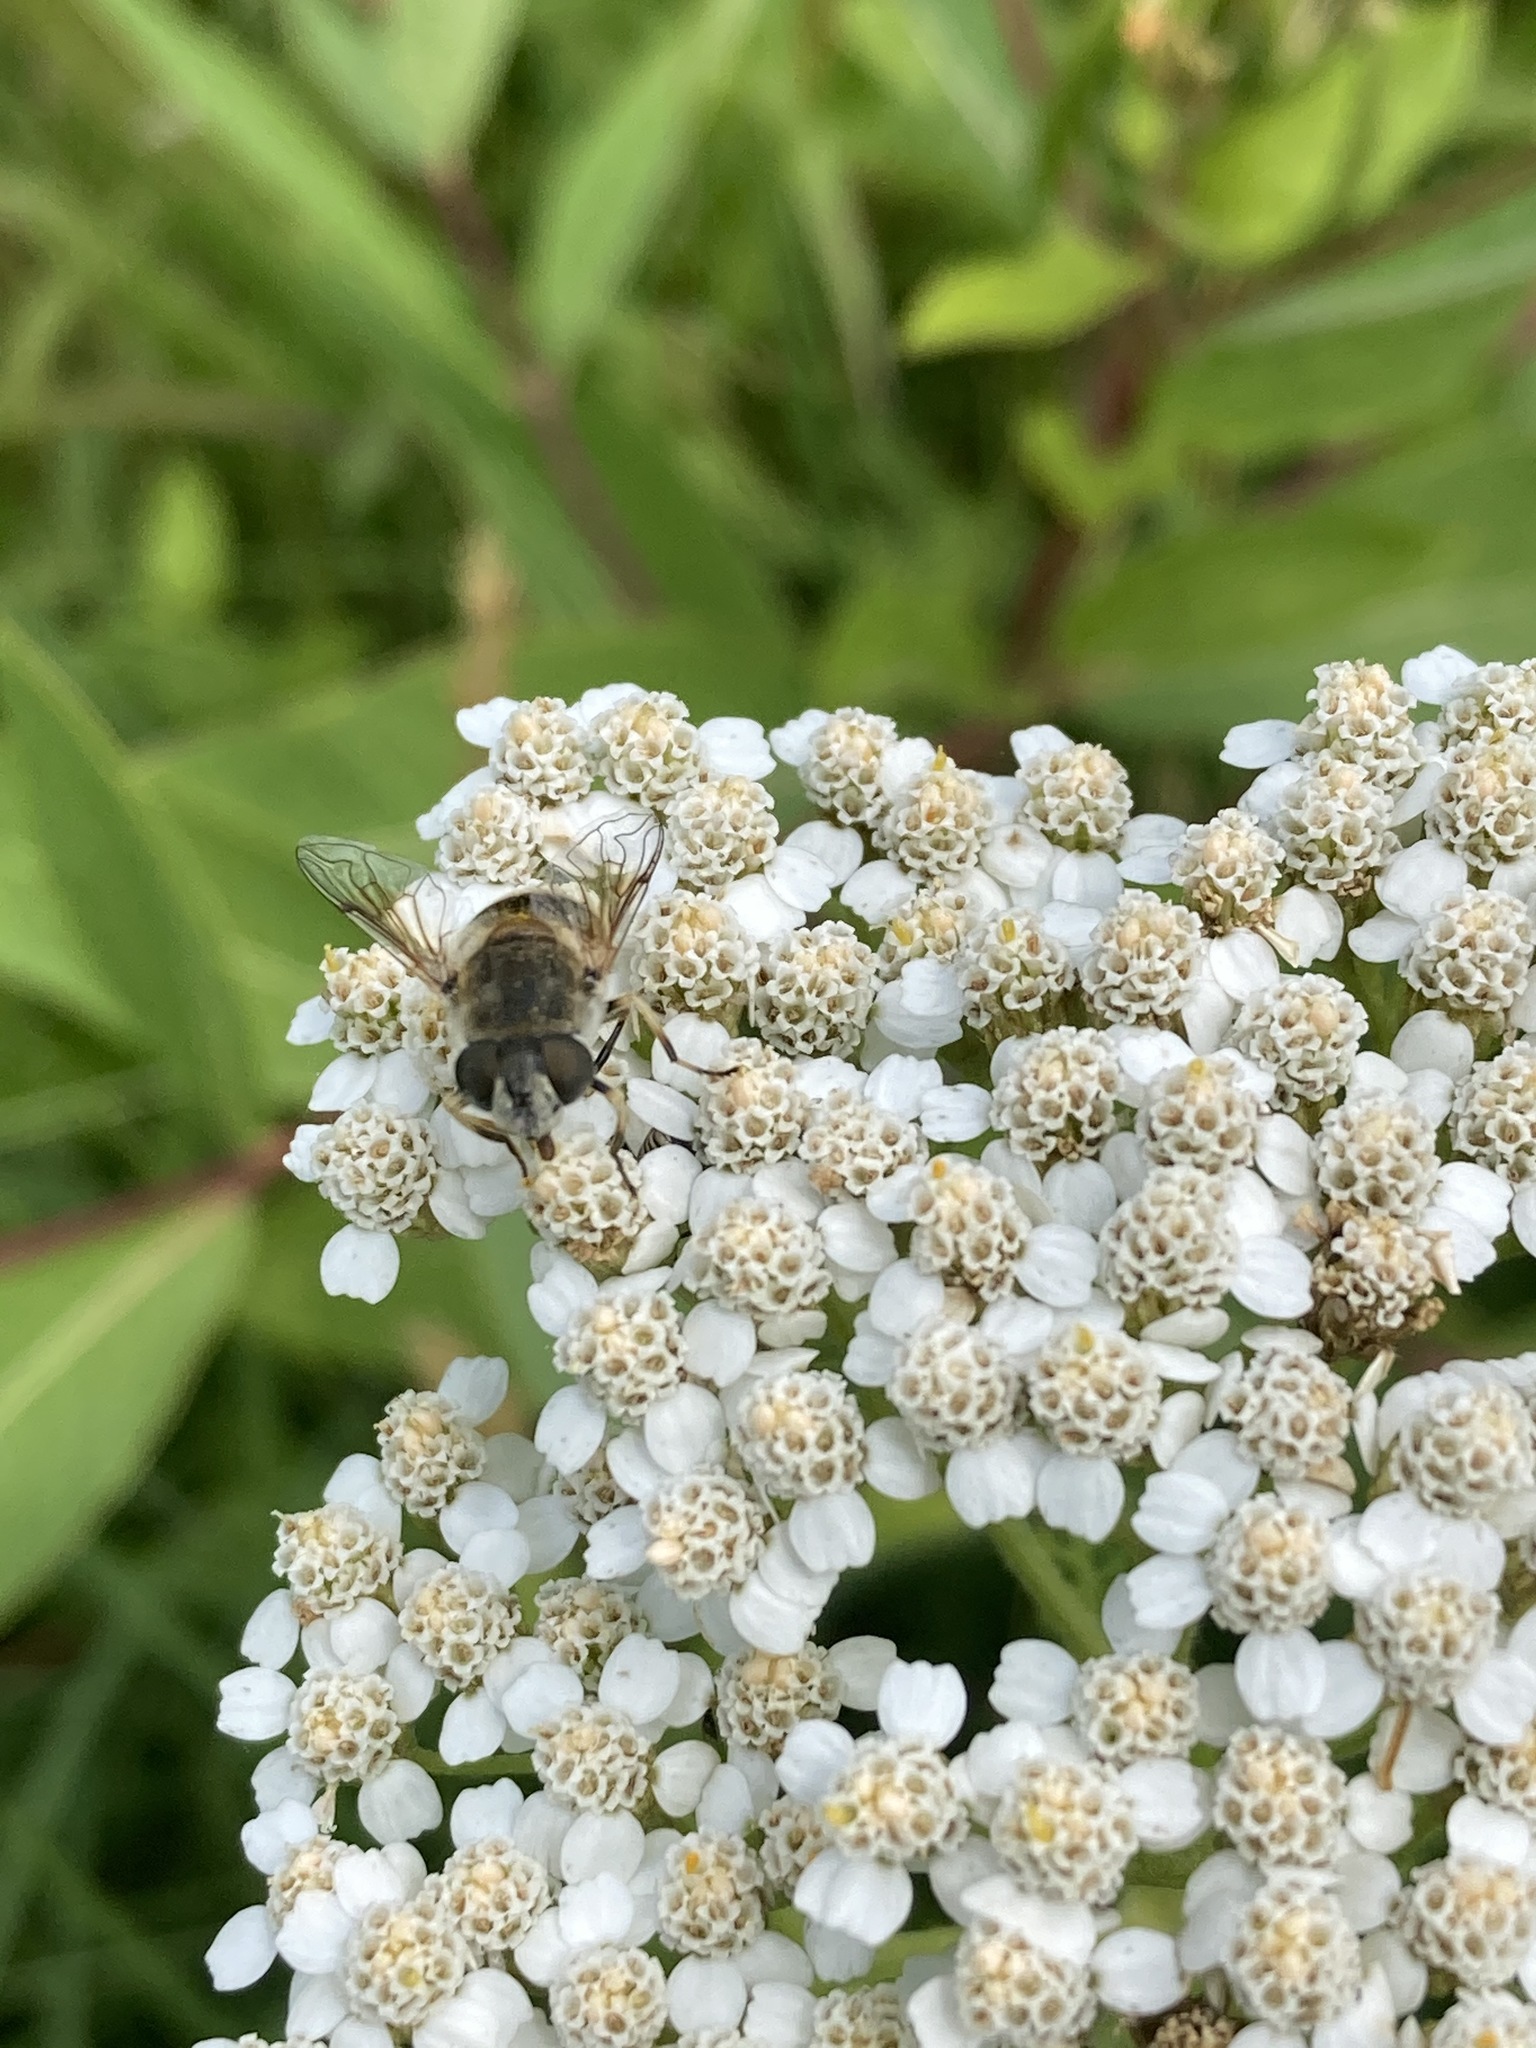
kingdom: Animalia
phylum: Arthropoda
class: Insecta
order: Diptera
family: Syrphidae
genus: Eristalis
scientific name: Eristalis arbustorum
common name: Hover fly
